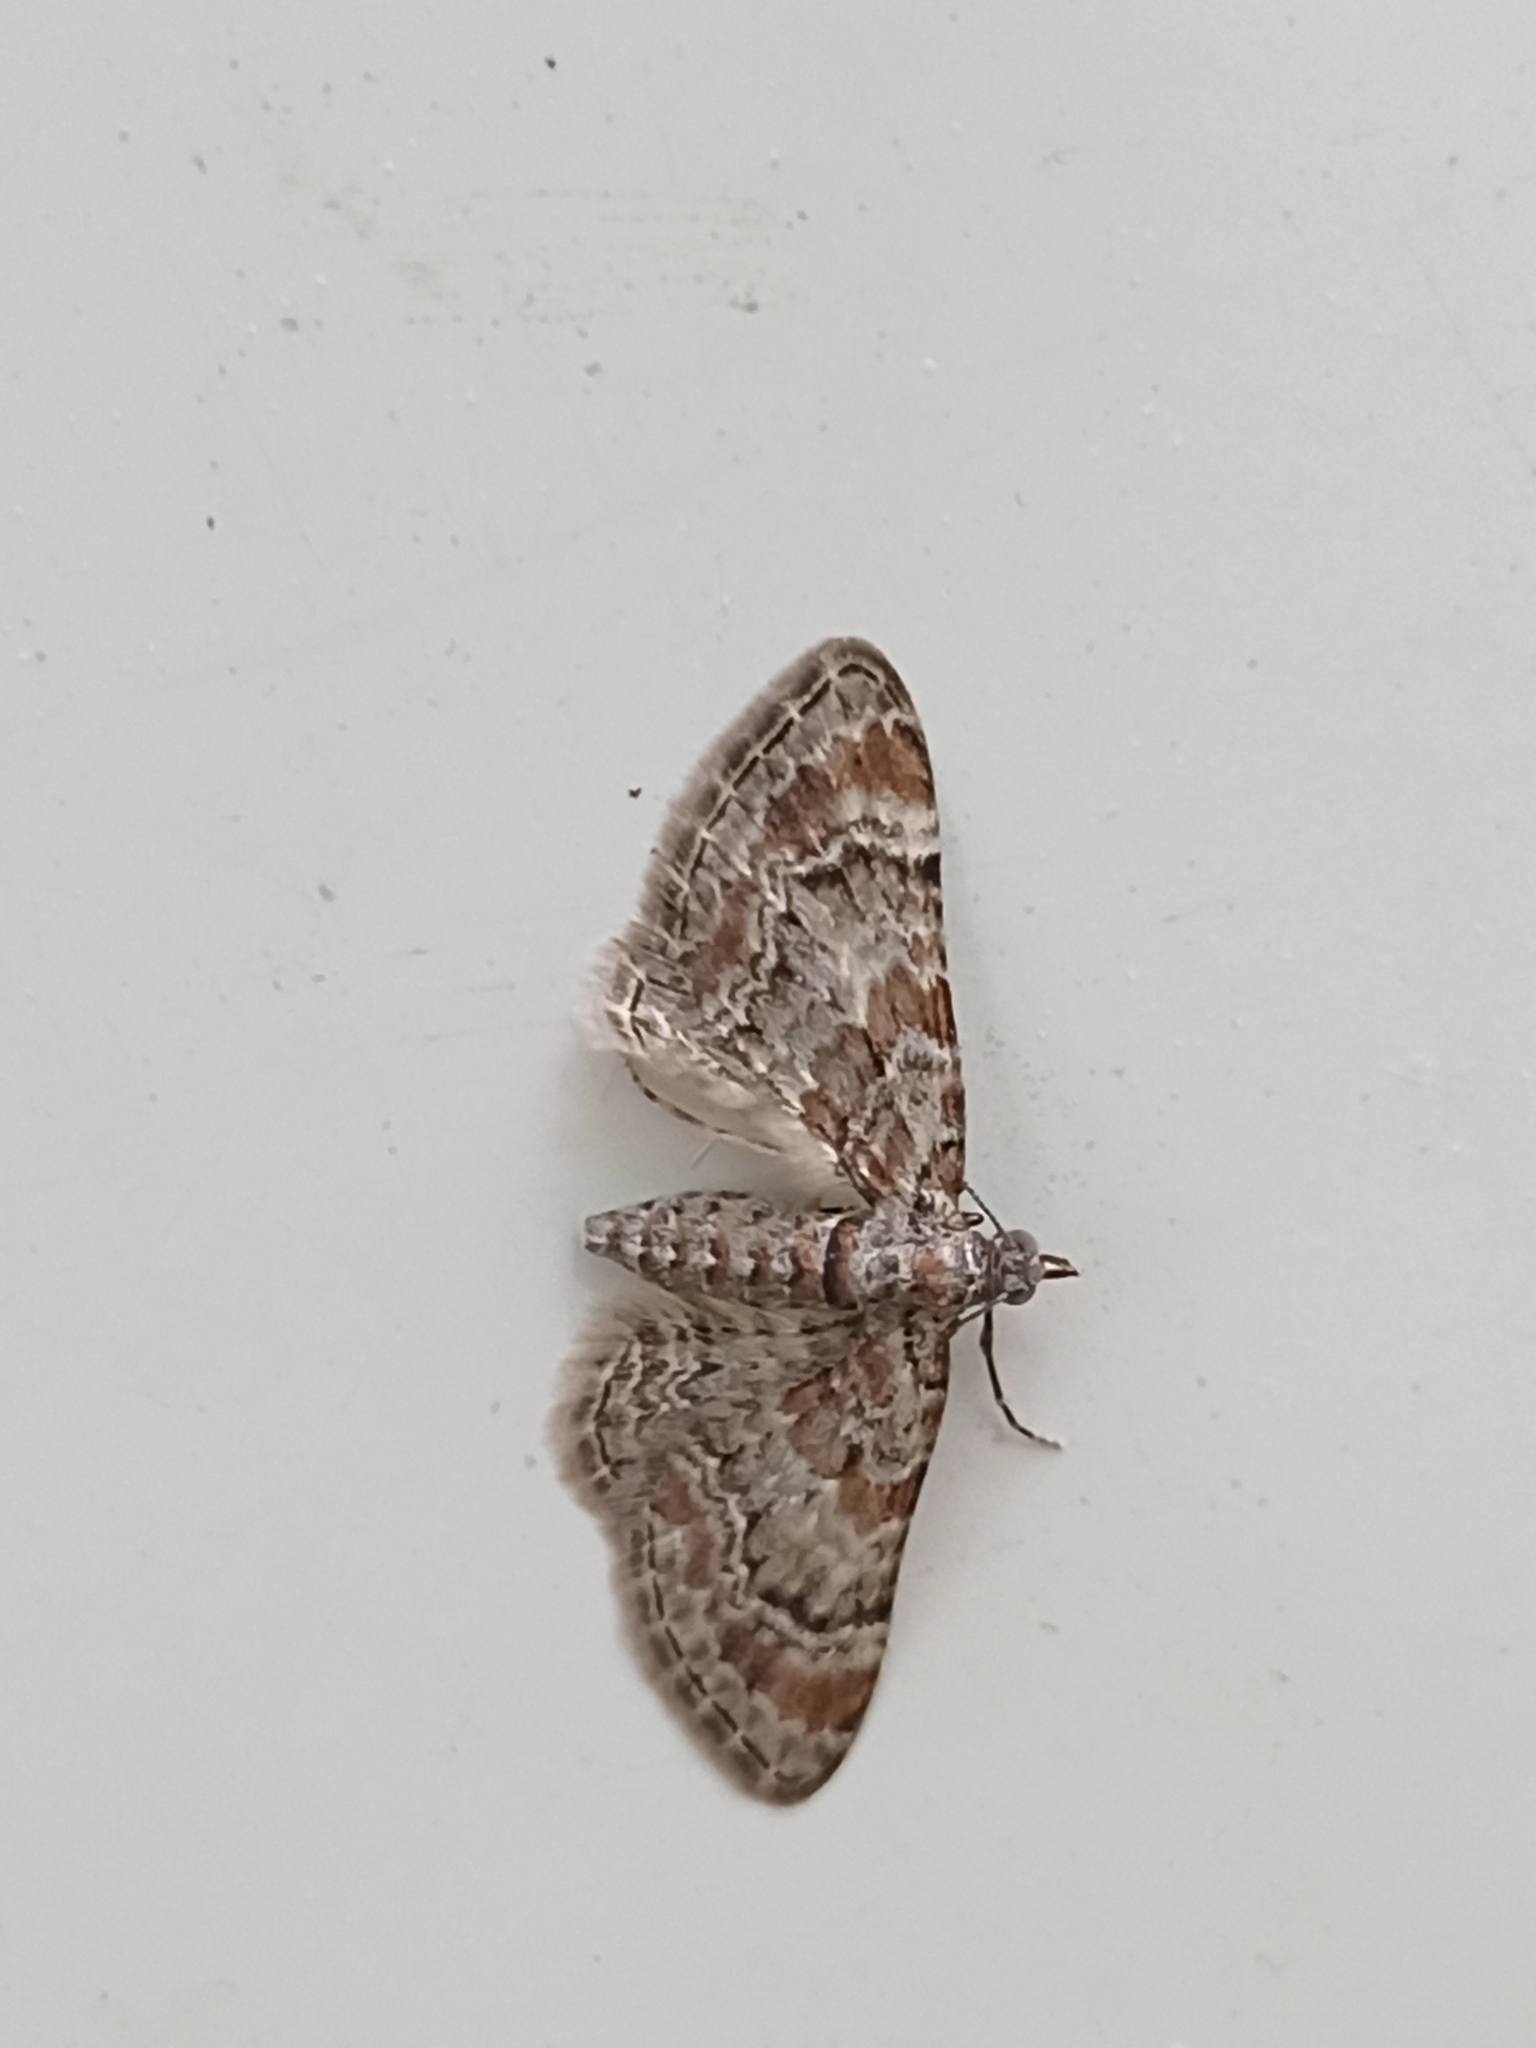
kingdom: Animalia
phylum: Arthropoda
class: Insecta
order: Lepidoptera
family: Geometridae
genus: Gymnoscelis
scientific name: Gymnoscelis rufifasciata
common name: Double-striped pug
